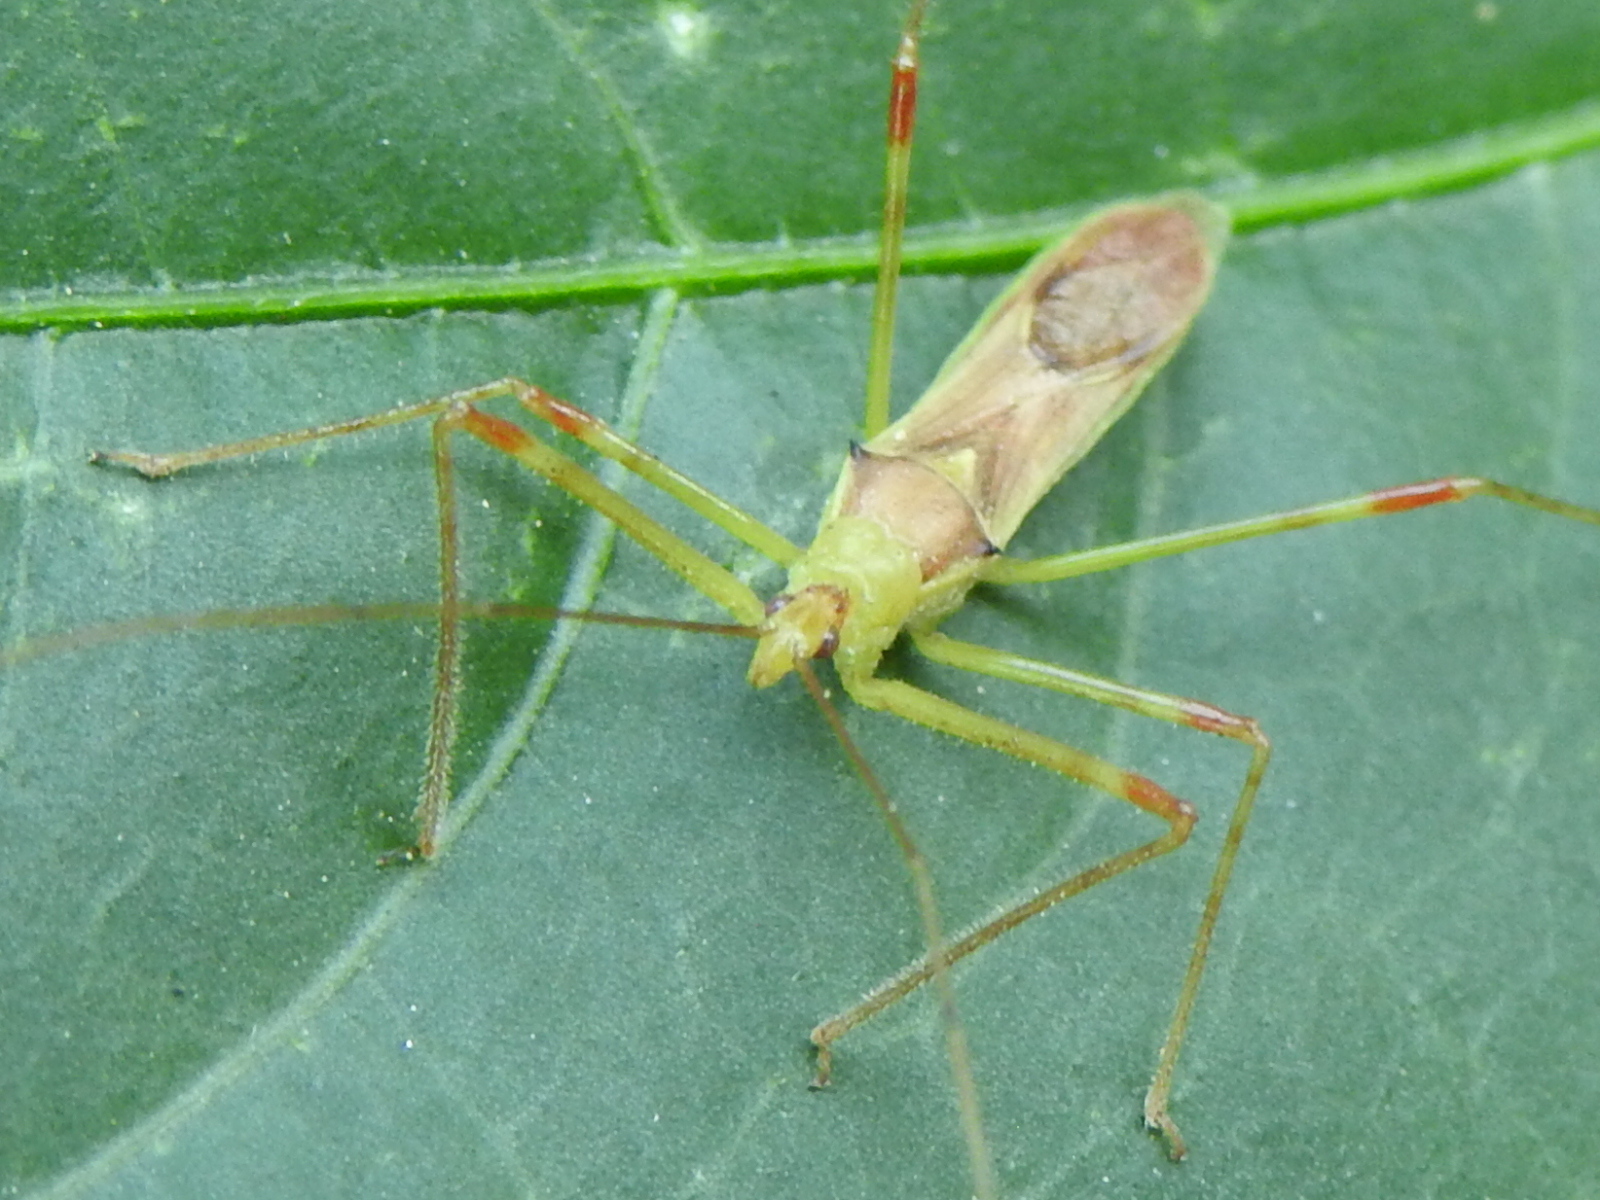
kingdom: Animalia
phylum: Arthropoda
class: Insecta
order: Hemiptera
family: Reduviidae
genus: Zelus
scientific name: Zelus luridus
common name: Pale green assassin bug
